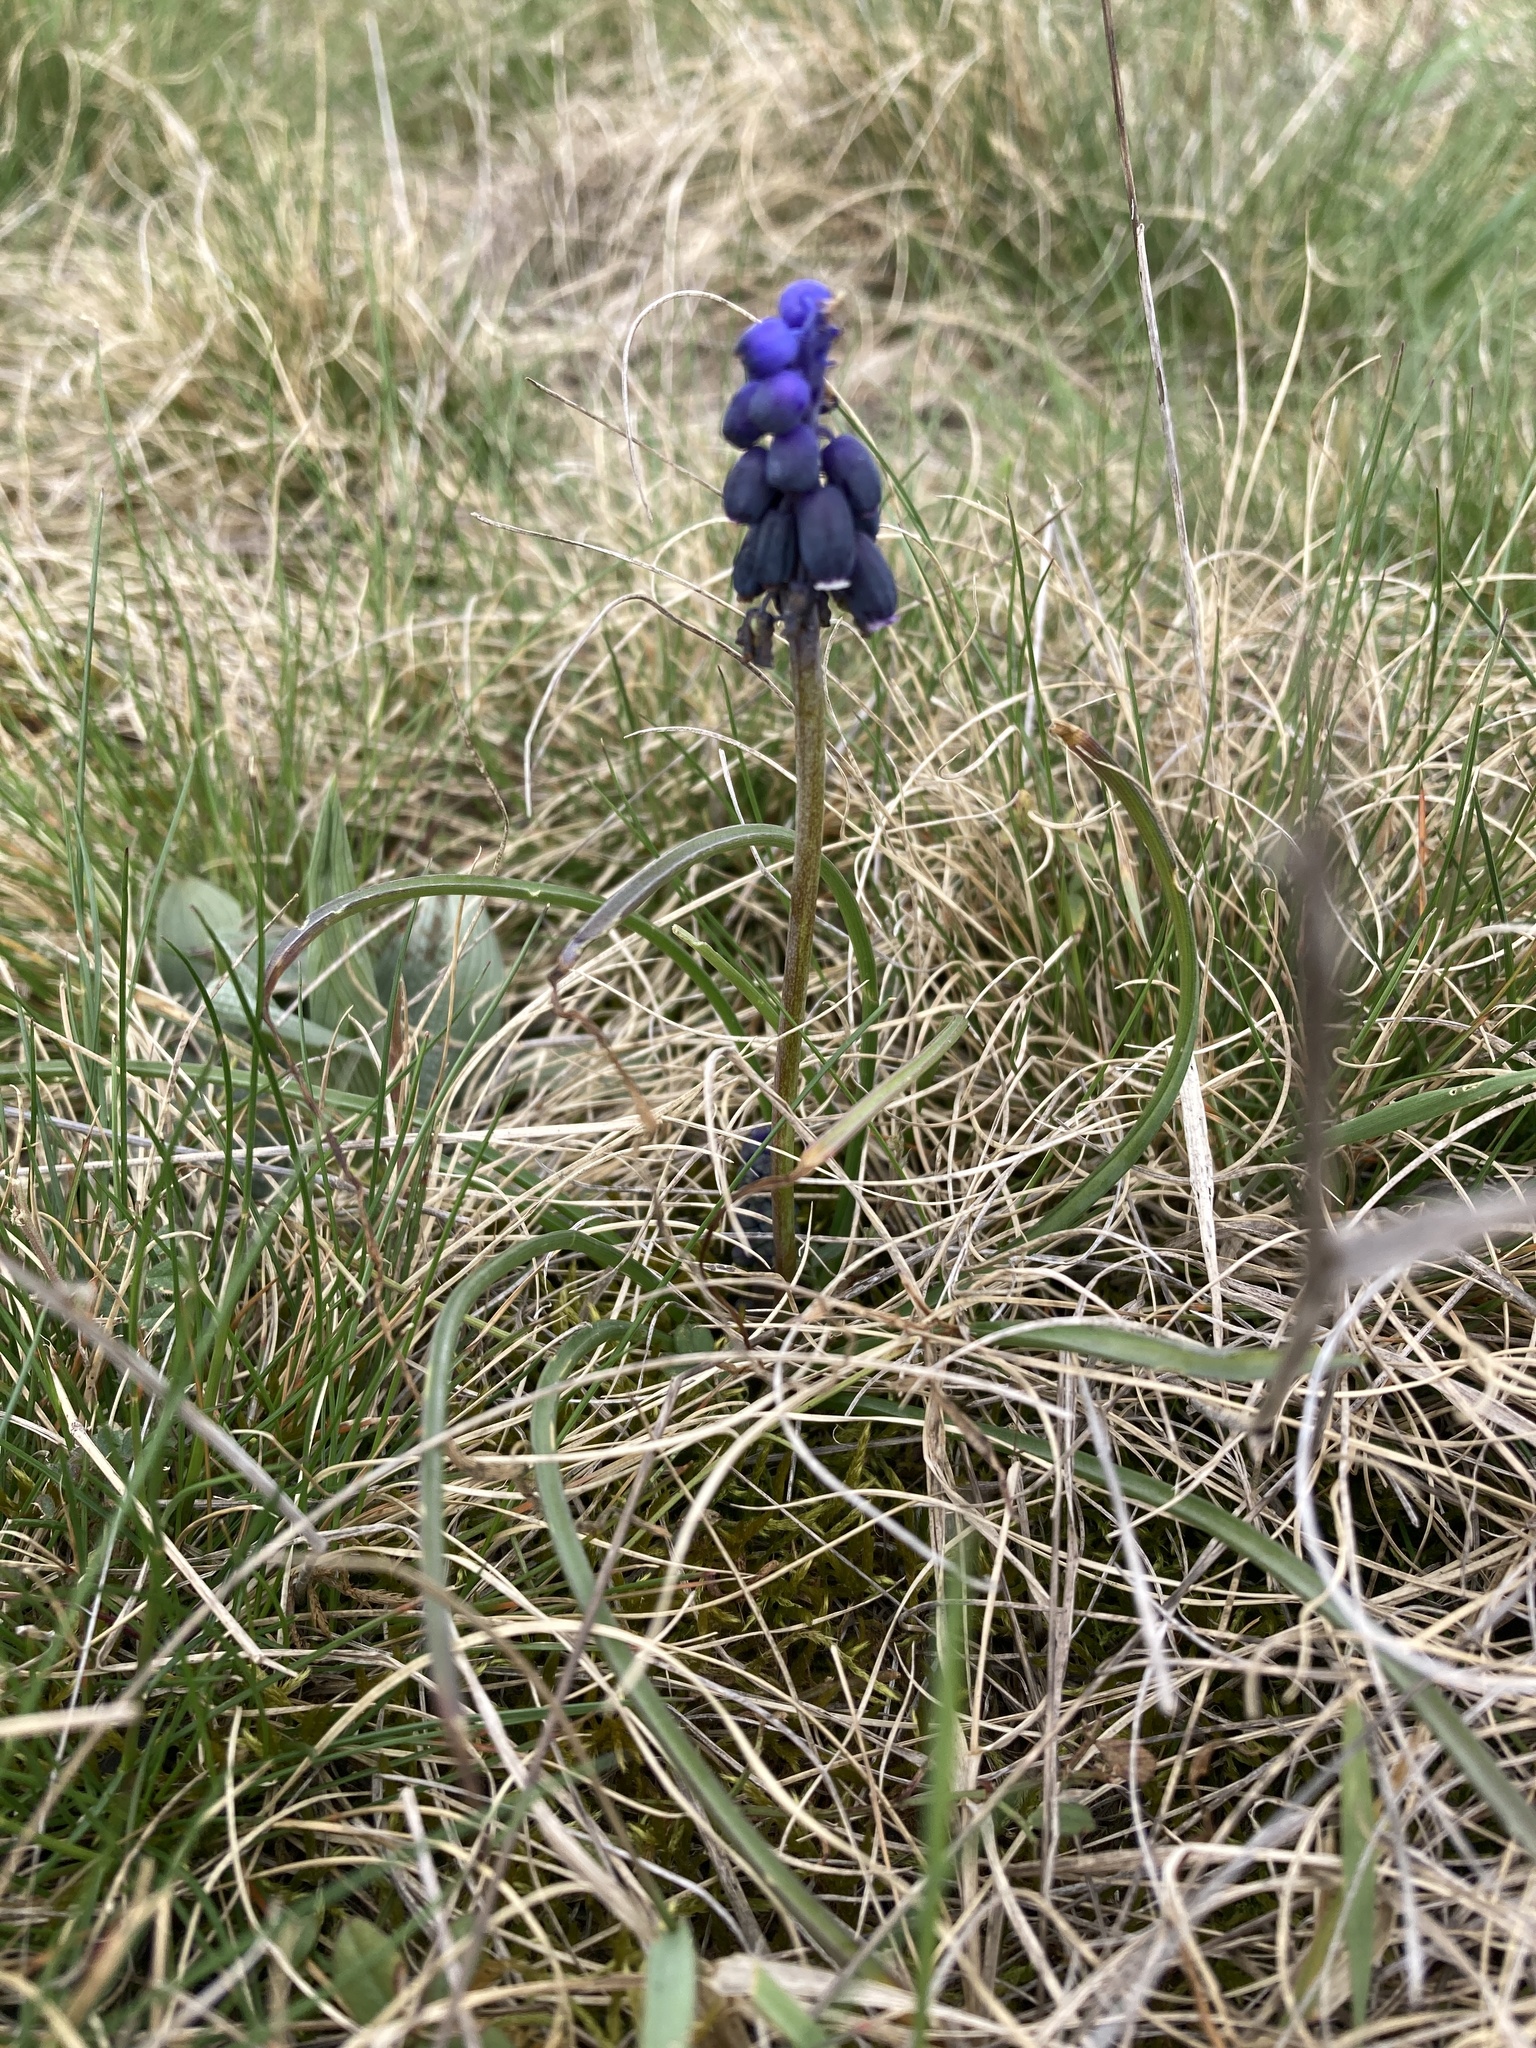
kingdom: Plantae
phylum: Tracheophyta
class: Liliopsida
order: Asparagales
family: Asparagaceae
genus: Muscari
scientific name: Muscari neglectum
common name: Grape-hyacinth
